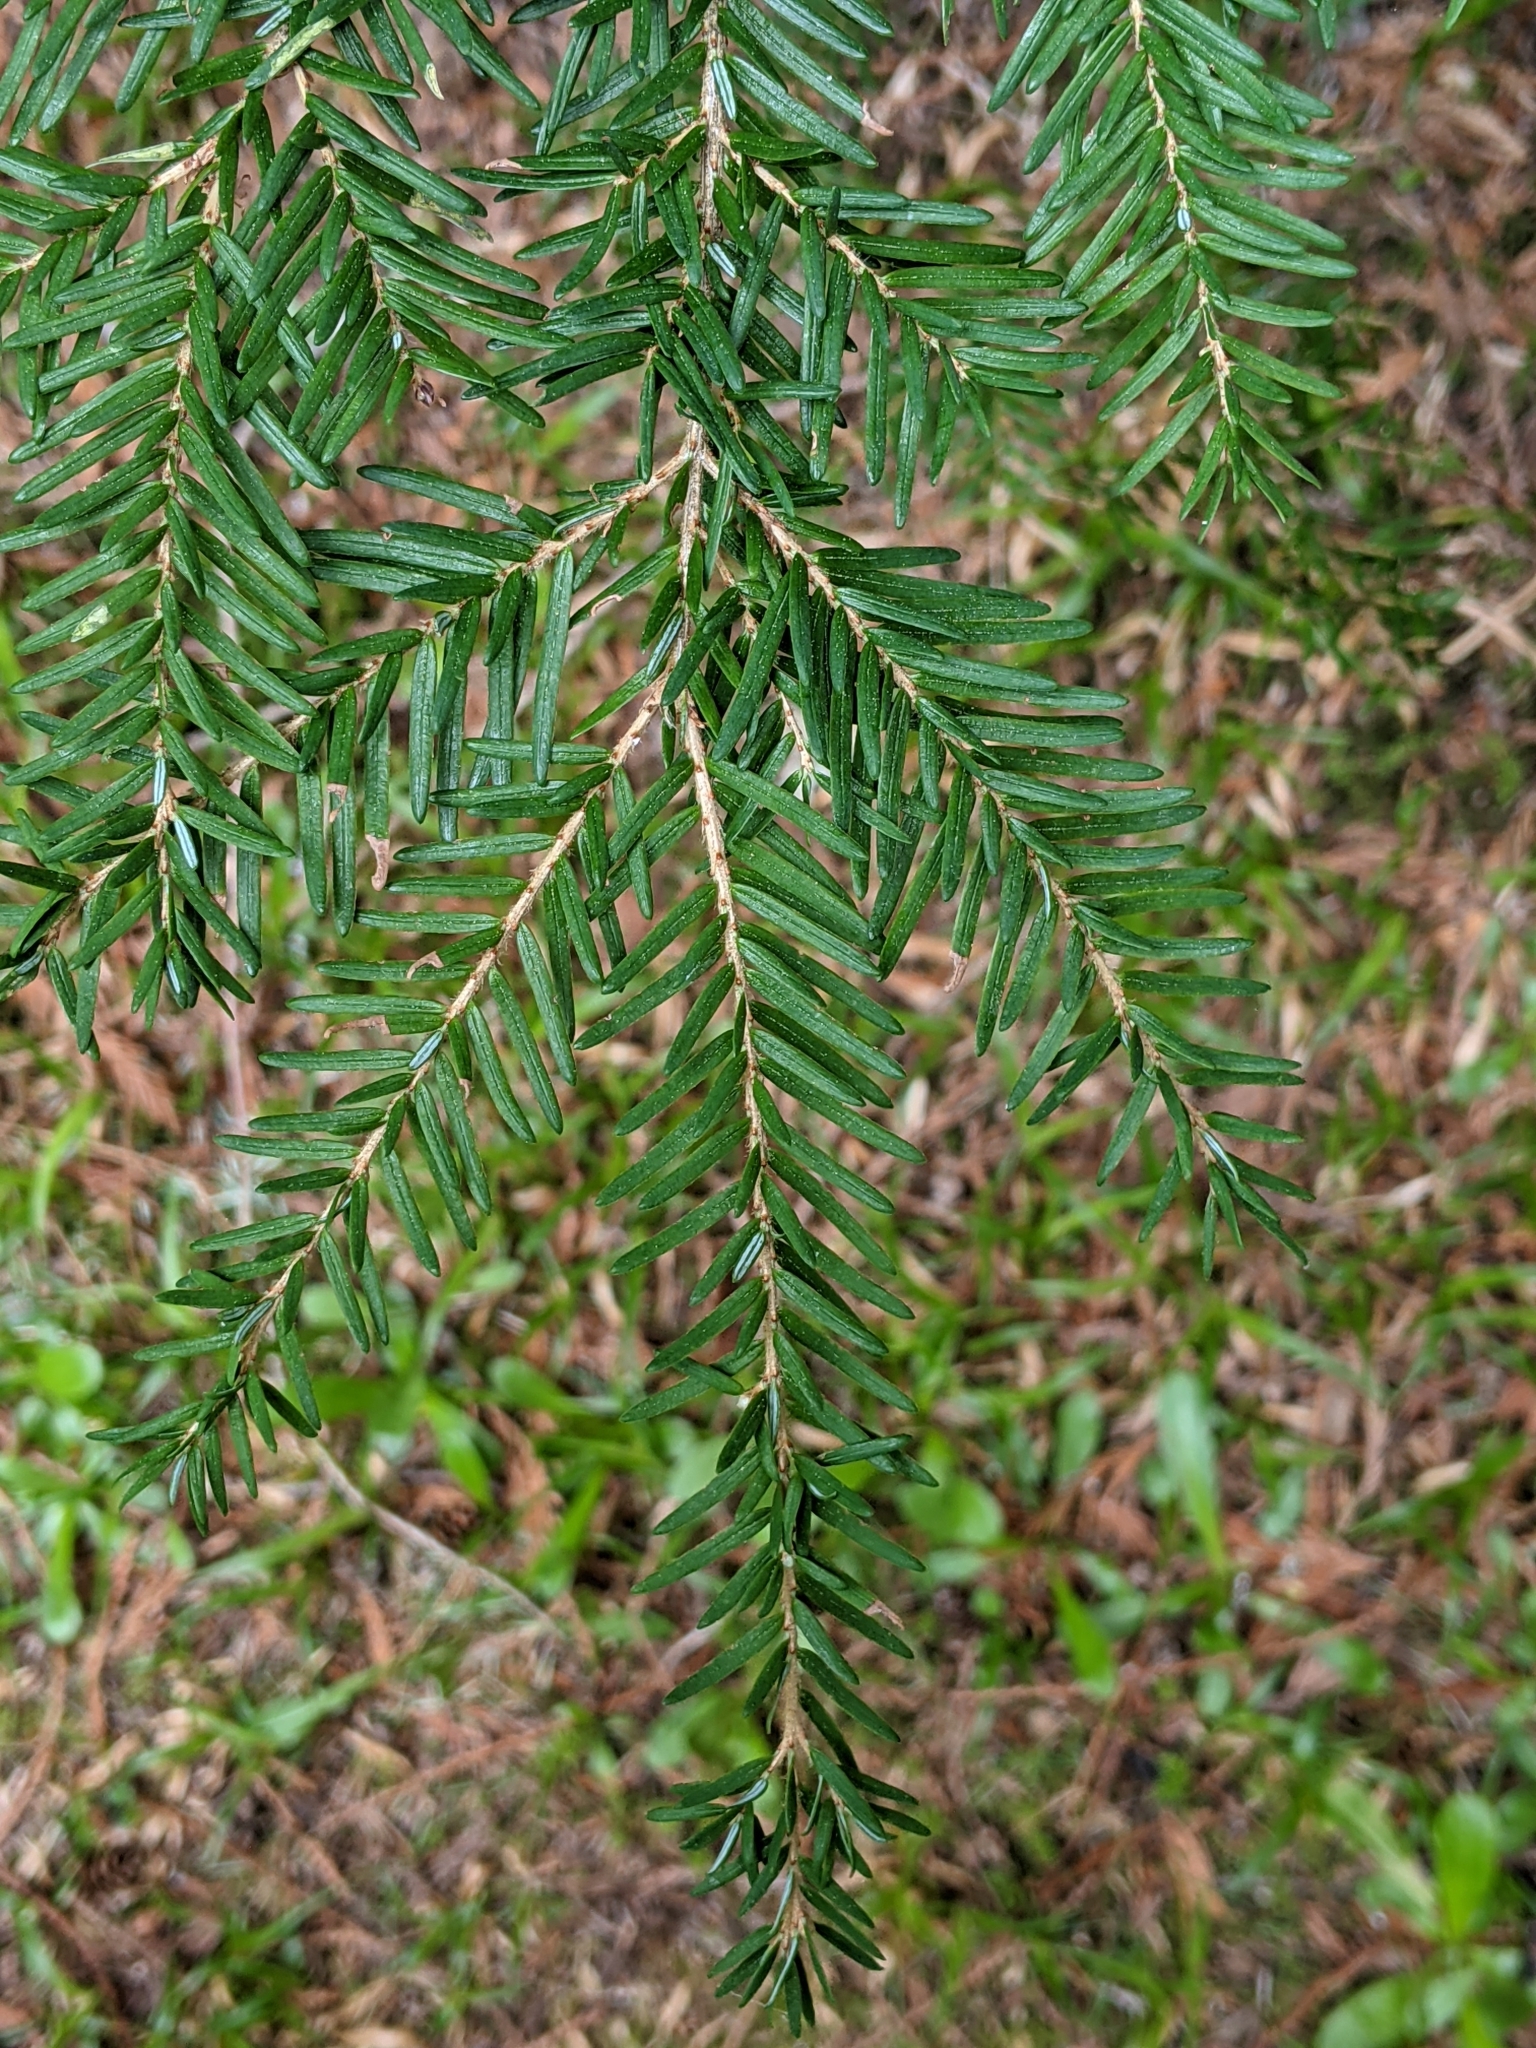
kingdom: Plantae
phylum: Tracheophyta
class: Pinopsida
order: Pinales
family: Pinaceae
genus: Tsuga
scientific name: Tsuga heterophylla
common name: Western hemlock
